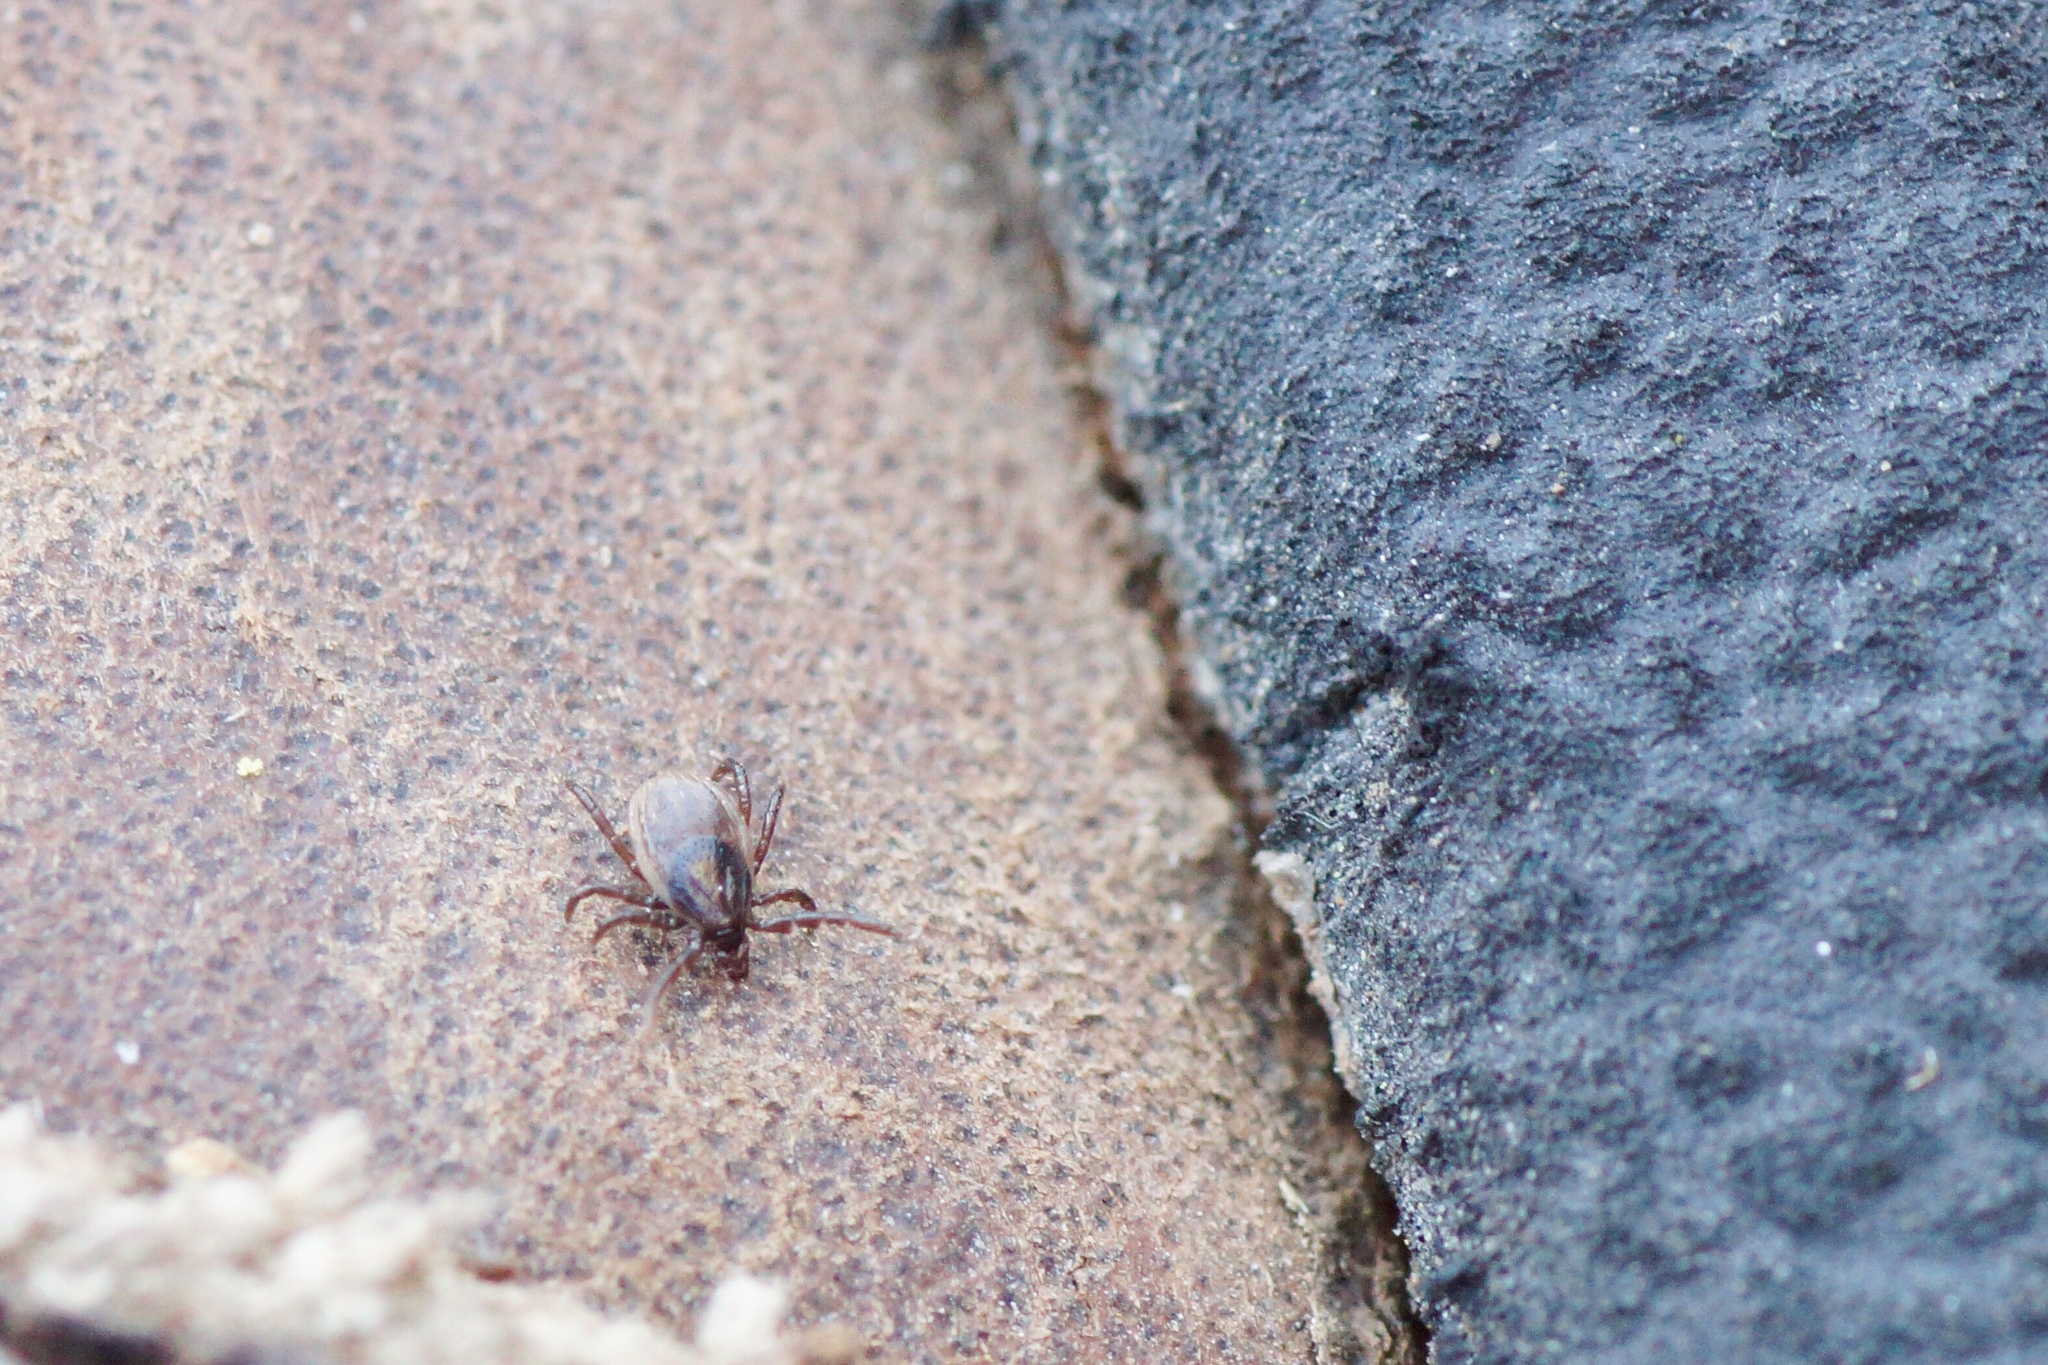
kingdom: Animalia
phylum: Arthropoda
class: Arachnida
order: Ixodida
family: Ixodidae
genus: Ixodes
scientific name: Ixodes ricinus
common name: Castor bean tick
